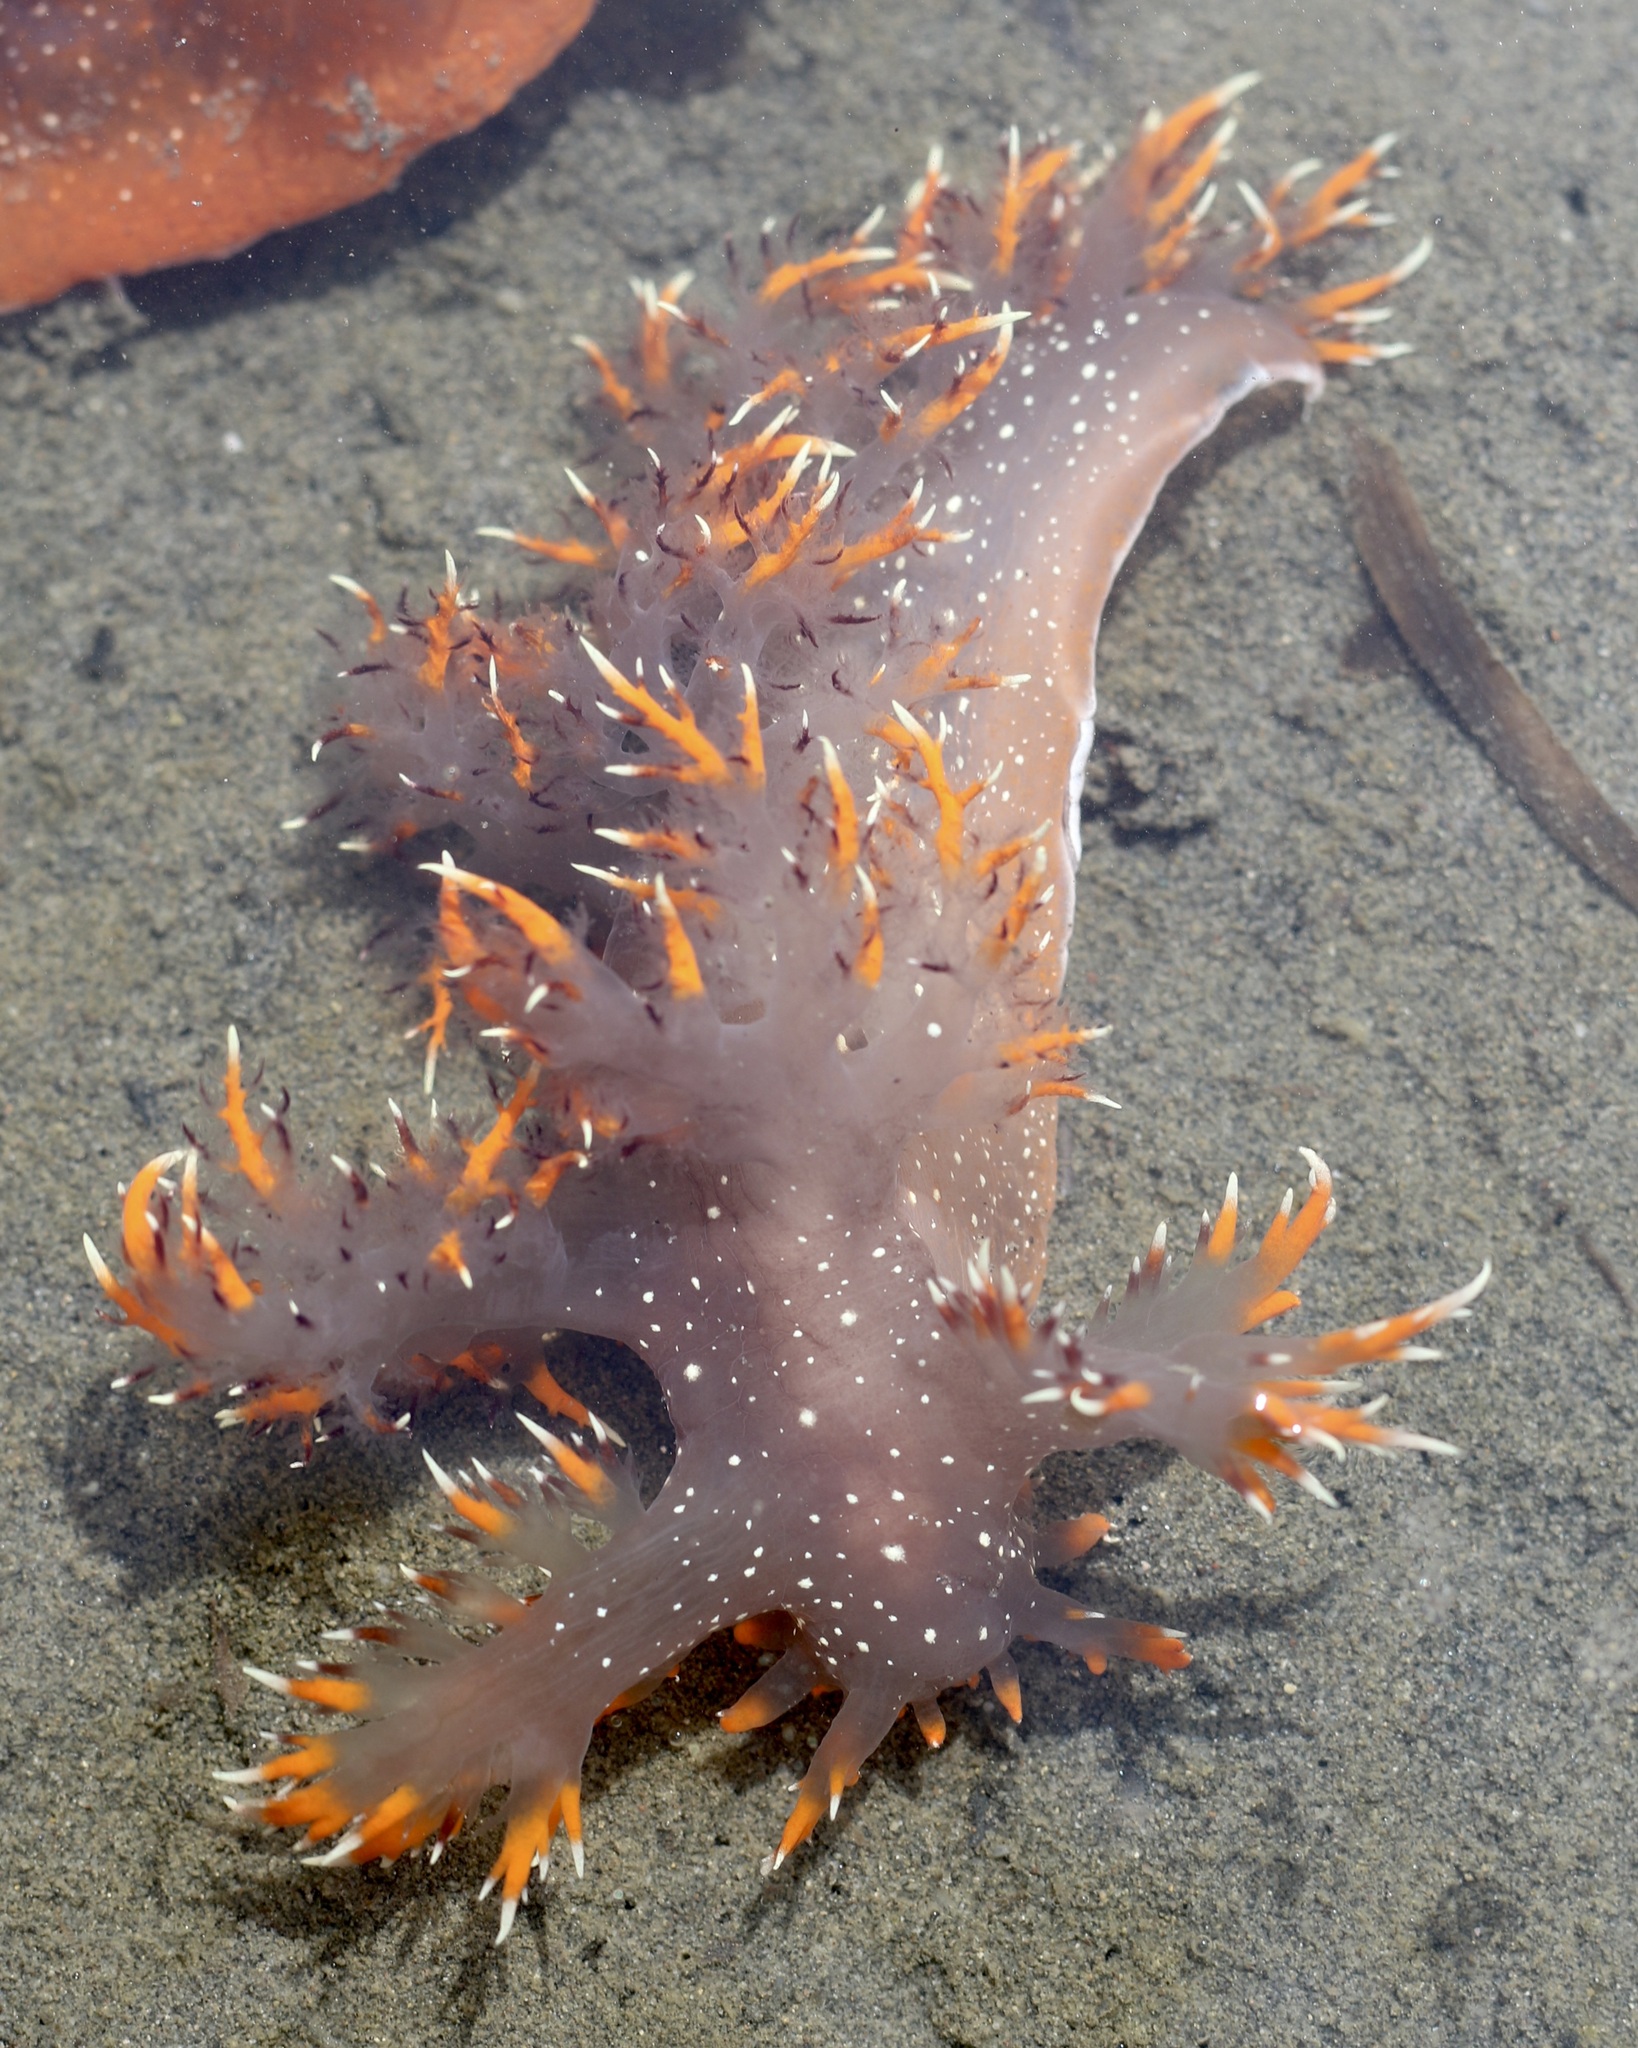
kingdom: Animalia
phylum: Mollusca
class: Gastropoda
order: Nudibranchia
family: Dendronotidae
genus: Dendronotus
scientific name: Dendronotus iris
